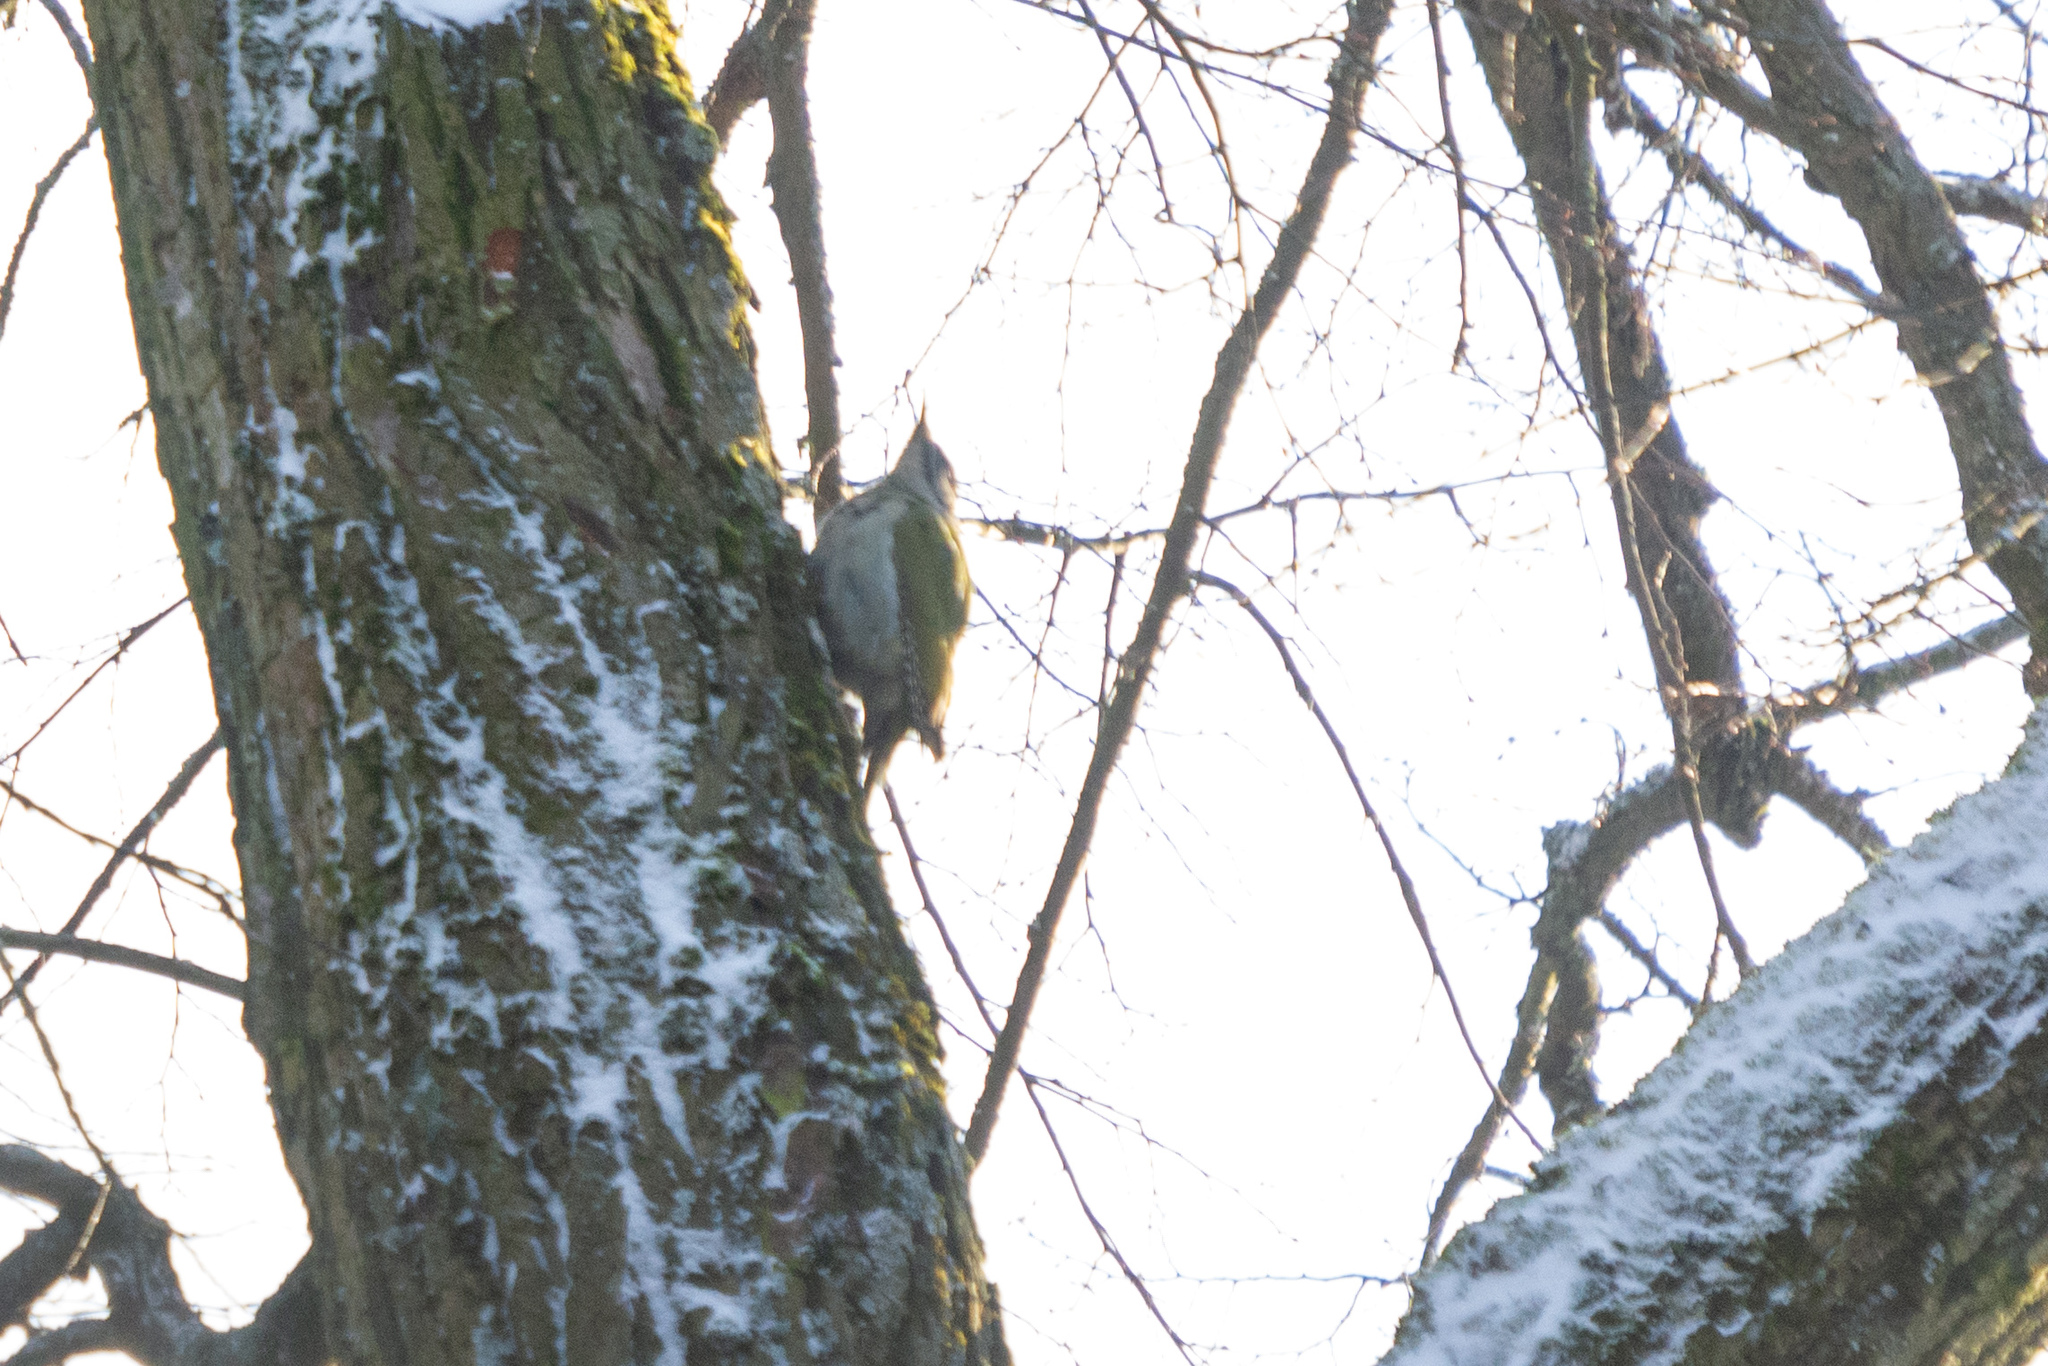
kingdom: Animalia
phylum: Chordata
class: Aves
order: Piciformes
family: Picidae
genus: Picus
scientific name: Picus canus
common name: Grey-headed woodpecker
